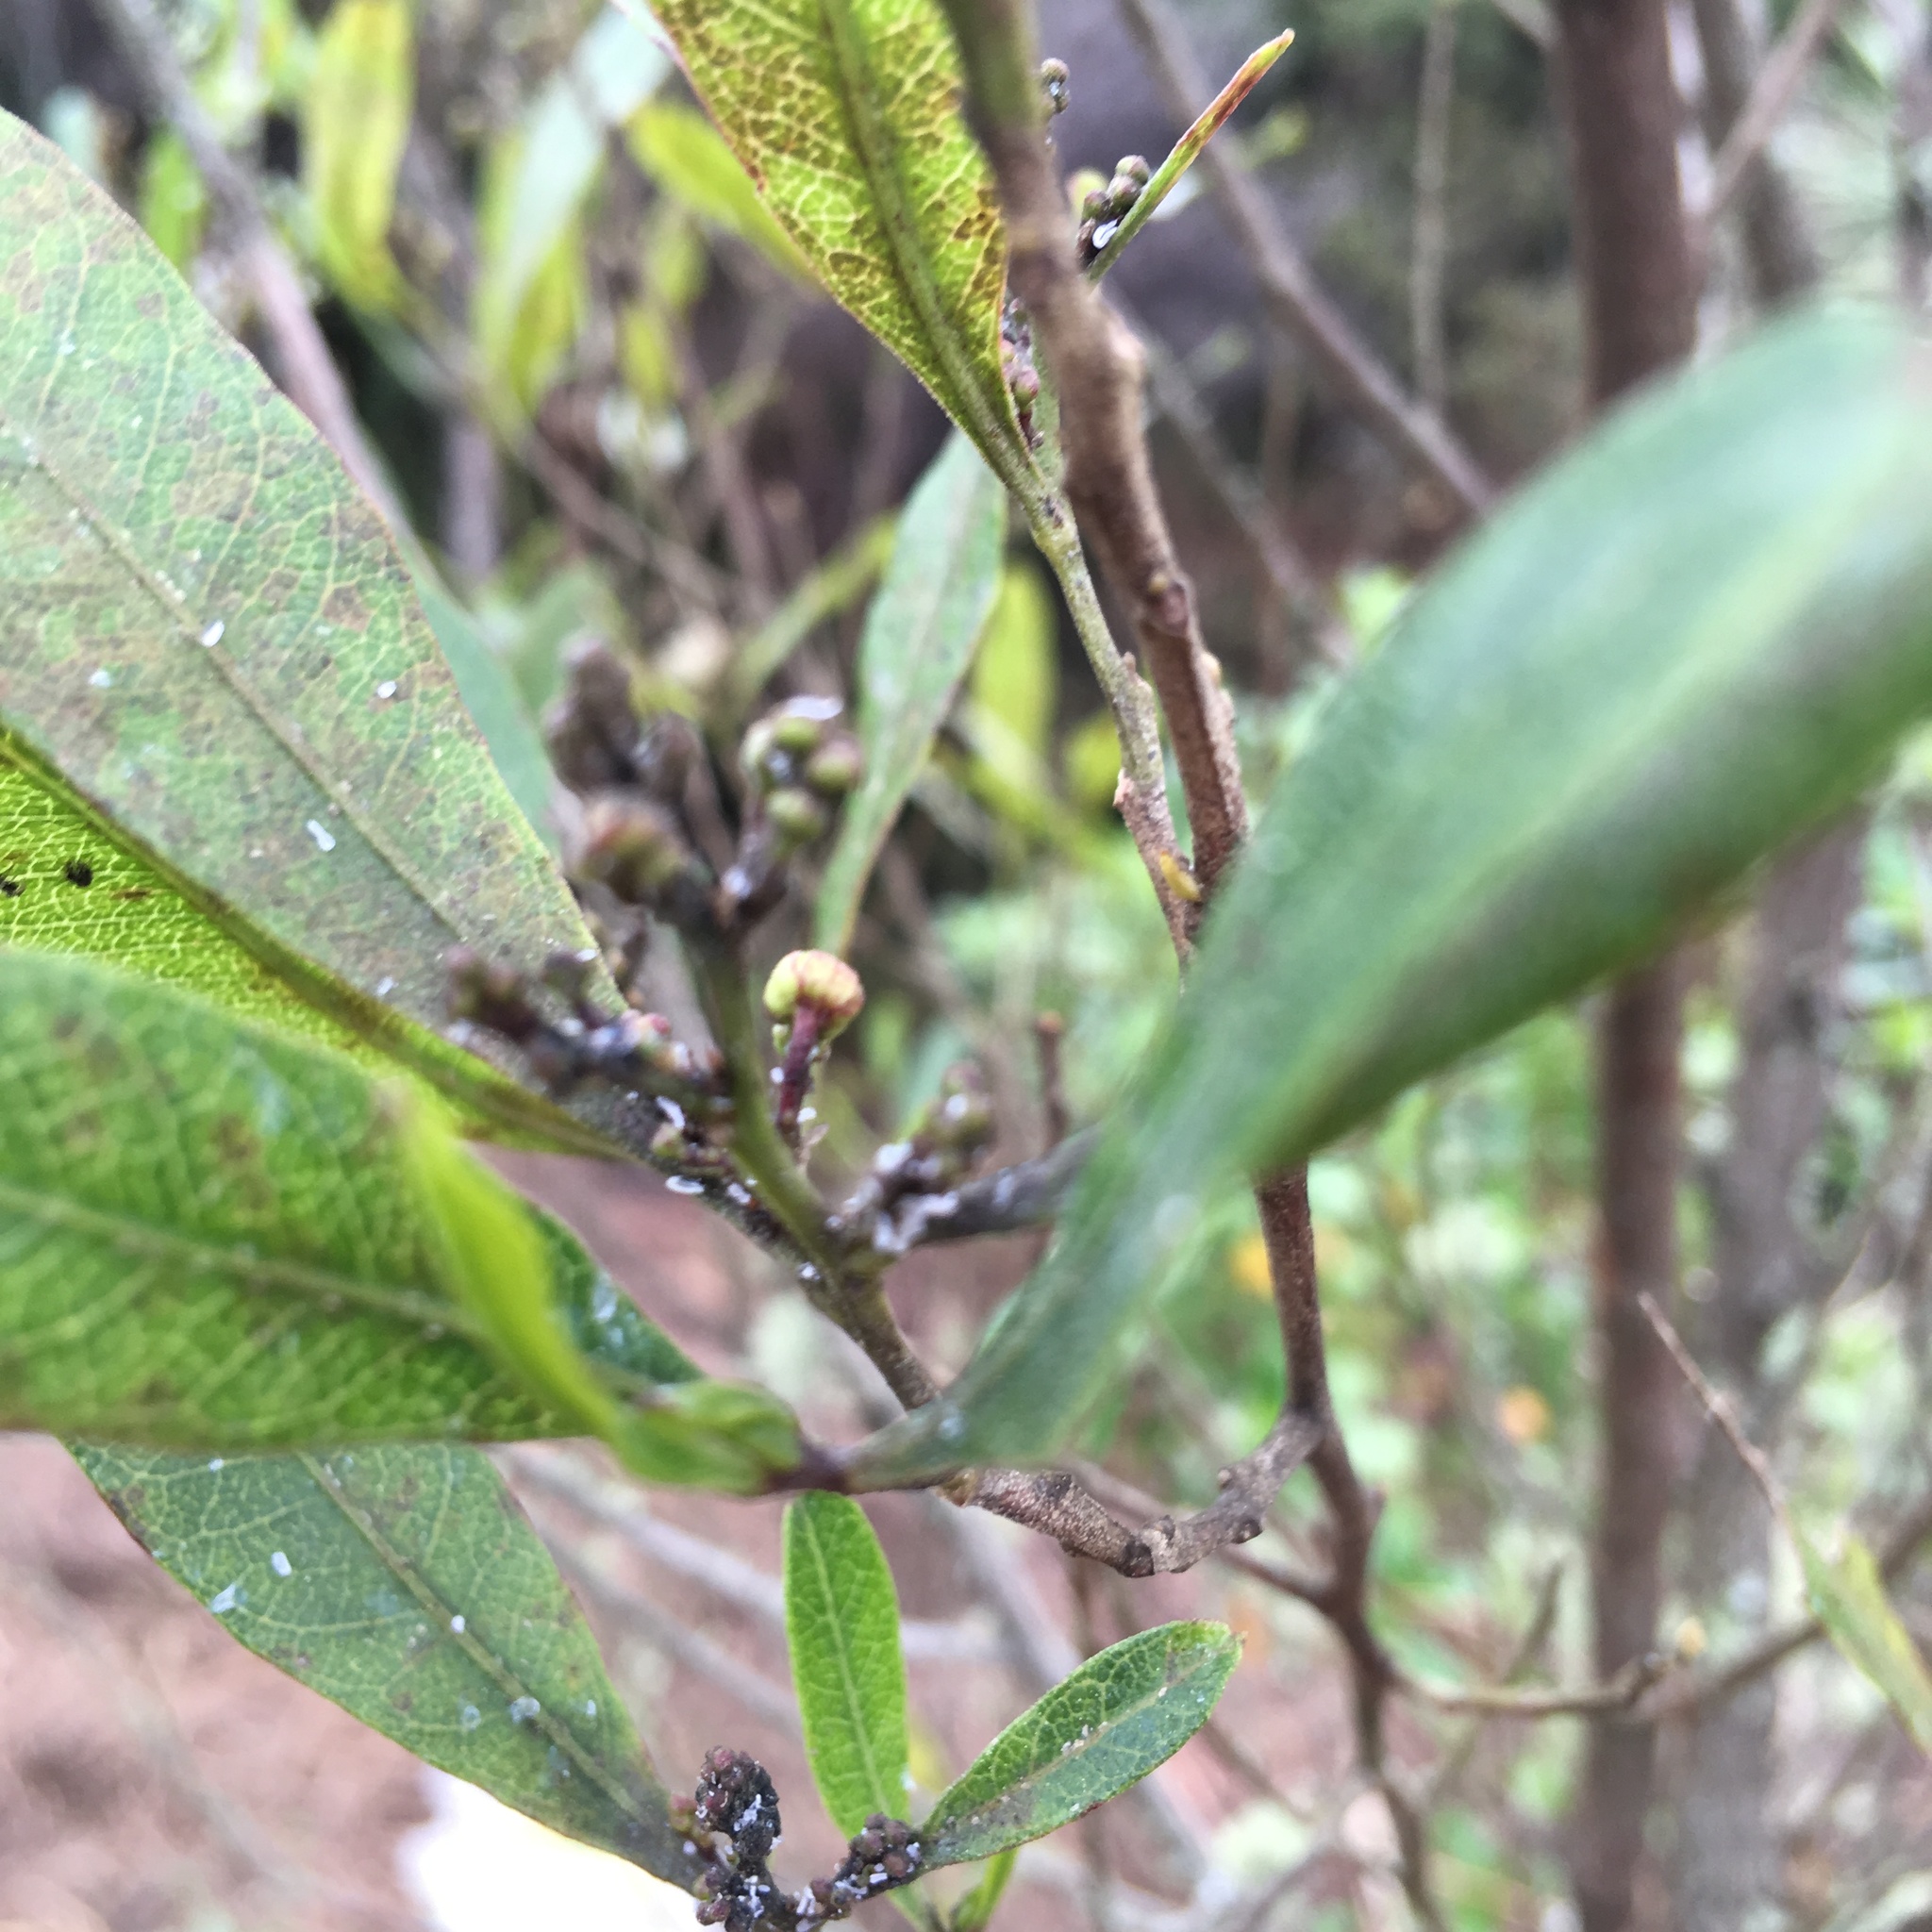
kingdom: Plantae
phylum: Tracheophyta
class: Magnoliopsida
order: Sapindales
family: Sapindaceae
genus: Dodonaea
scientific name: Dodonaea viscosa
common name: Hopbush
